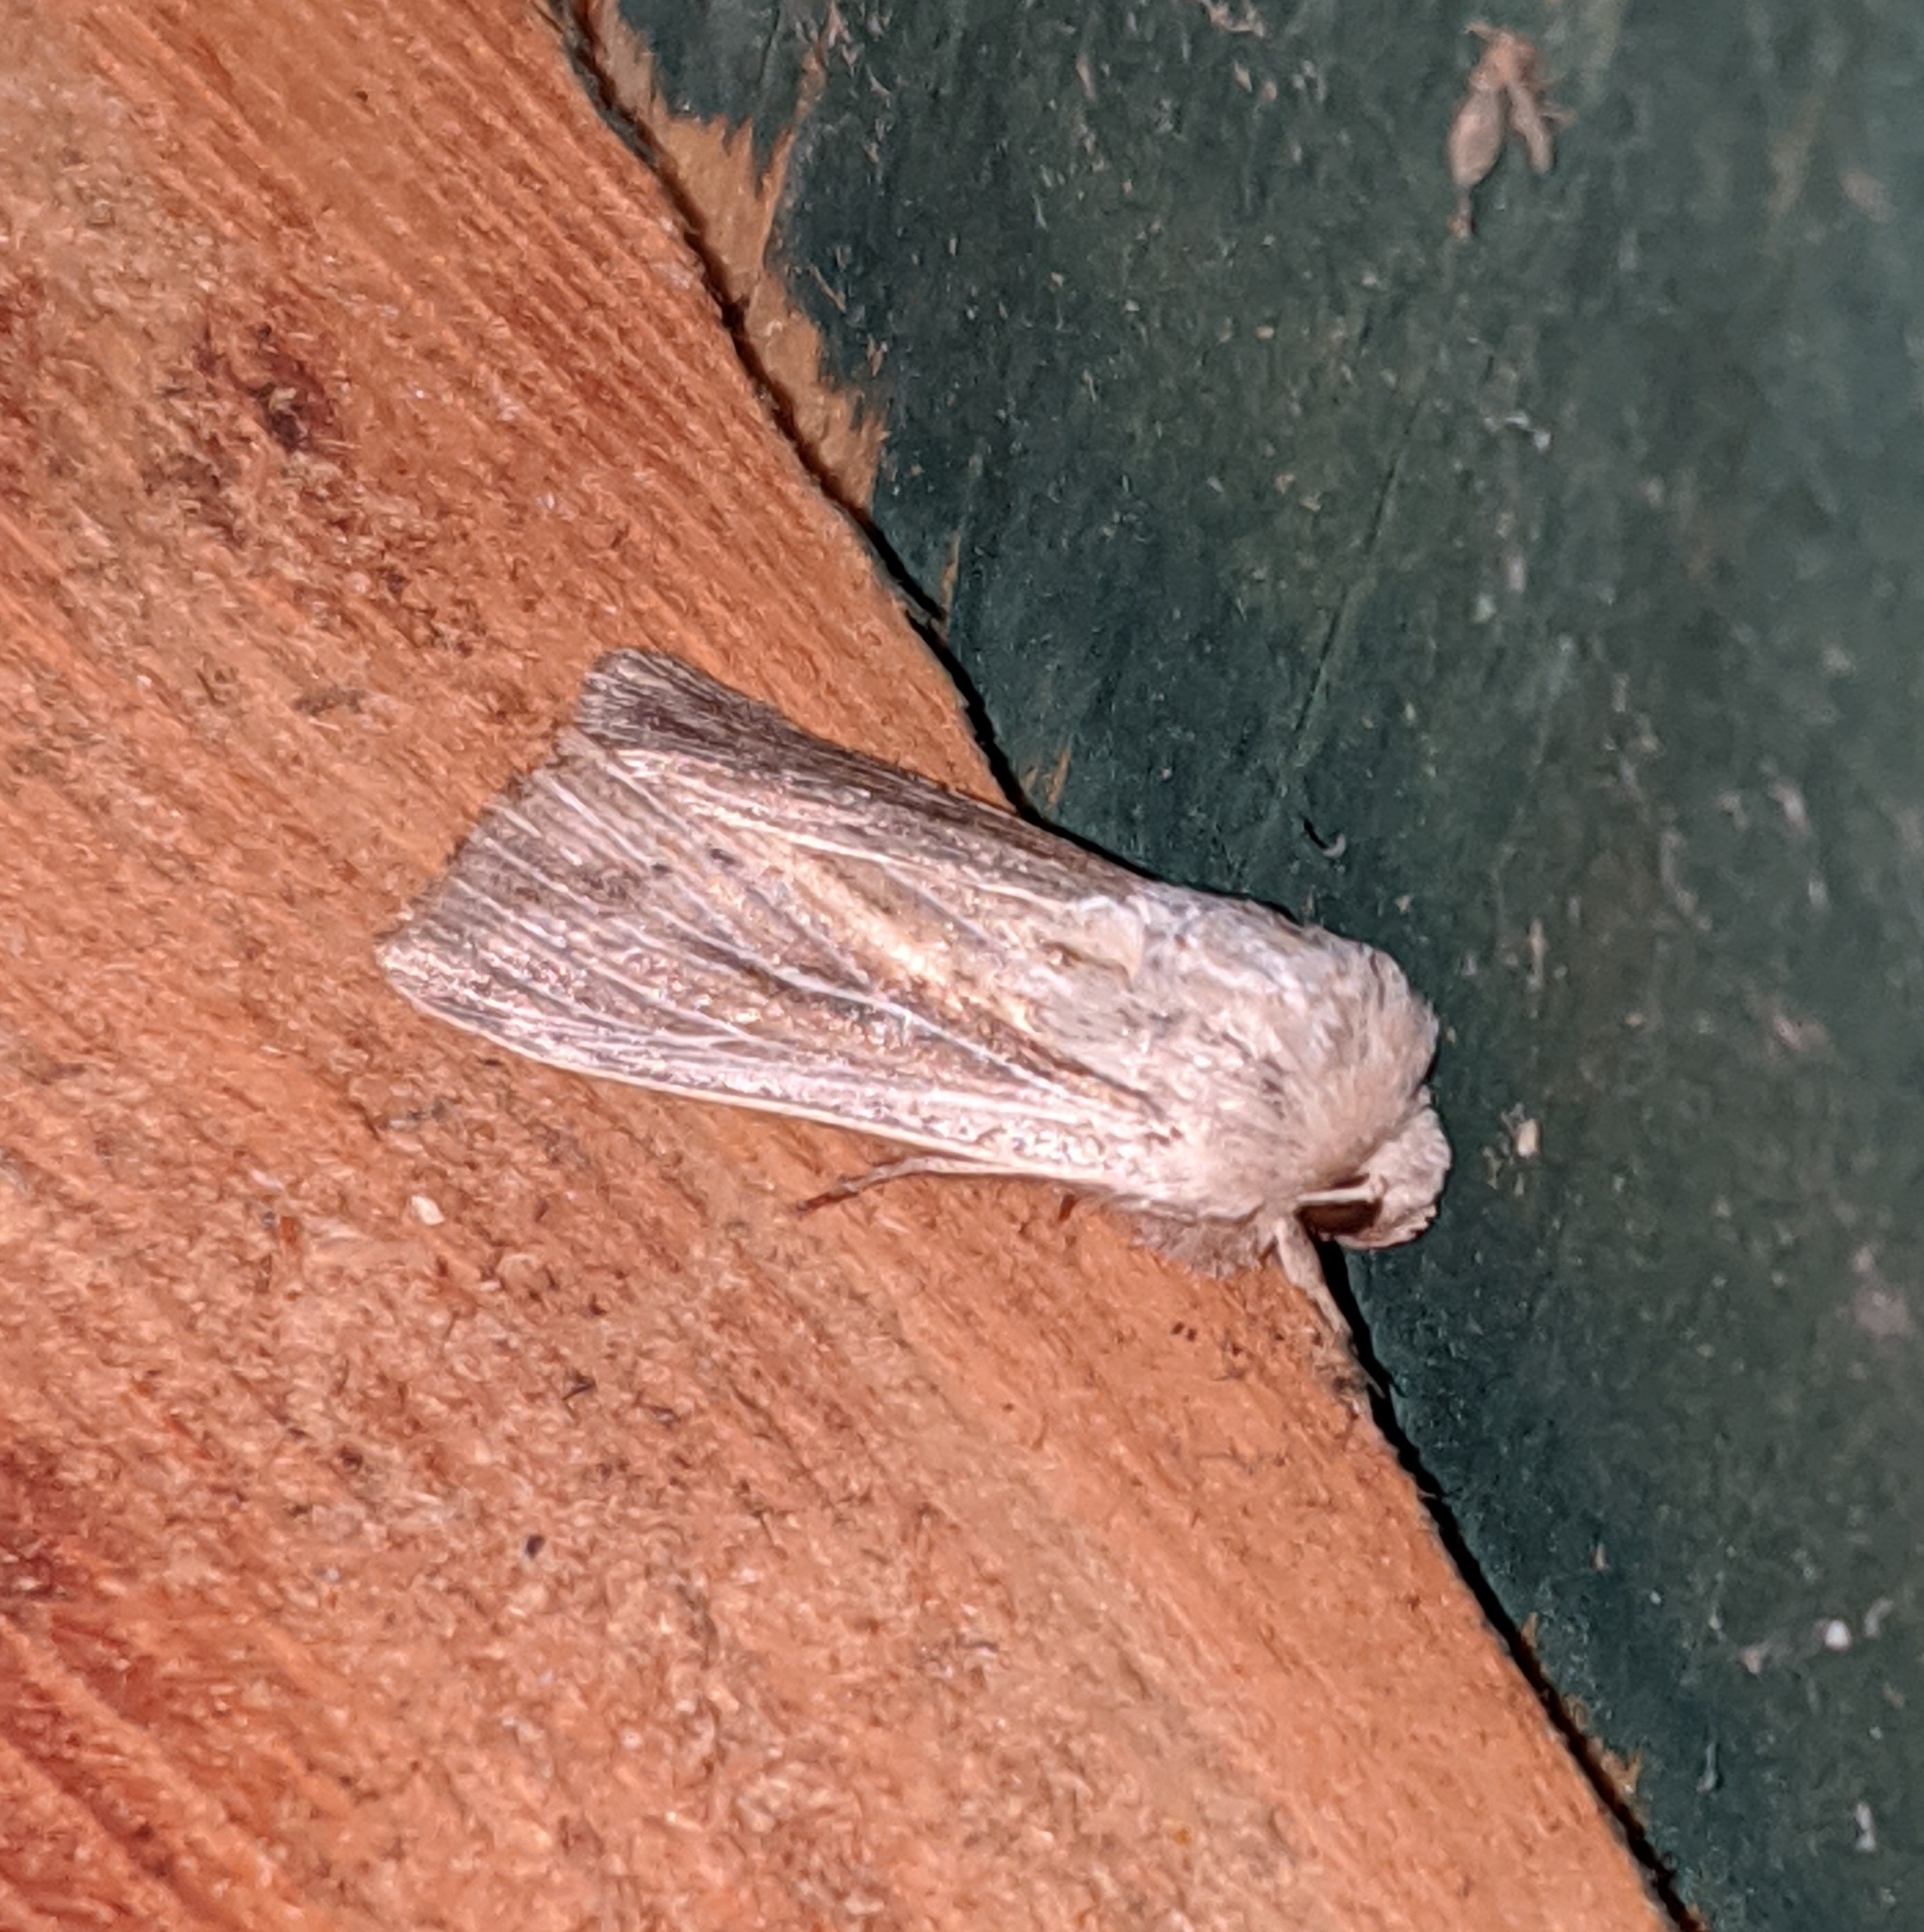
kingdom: Animalia
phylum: Arthropoda
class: Insecta
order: Lepidoptera
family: Noctuidae
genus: Leucania
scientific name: Leucania insueta
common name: Heterodox wainscot moth
